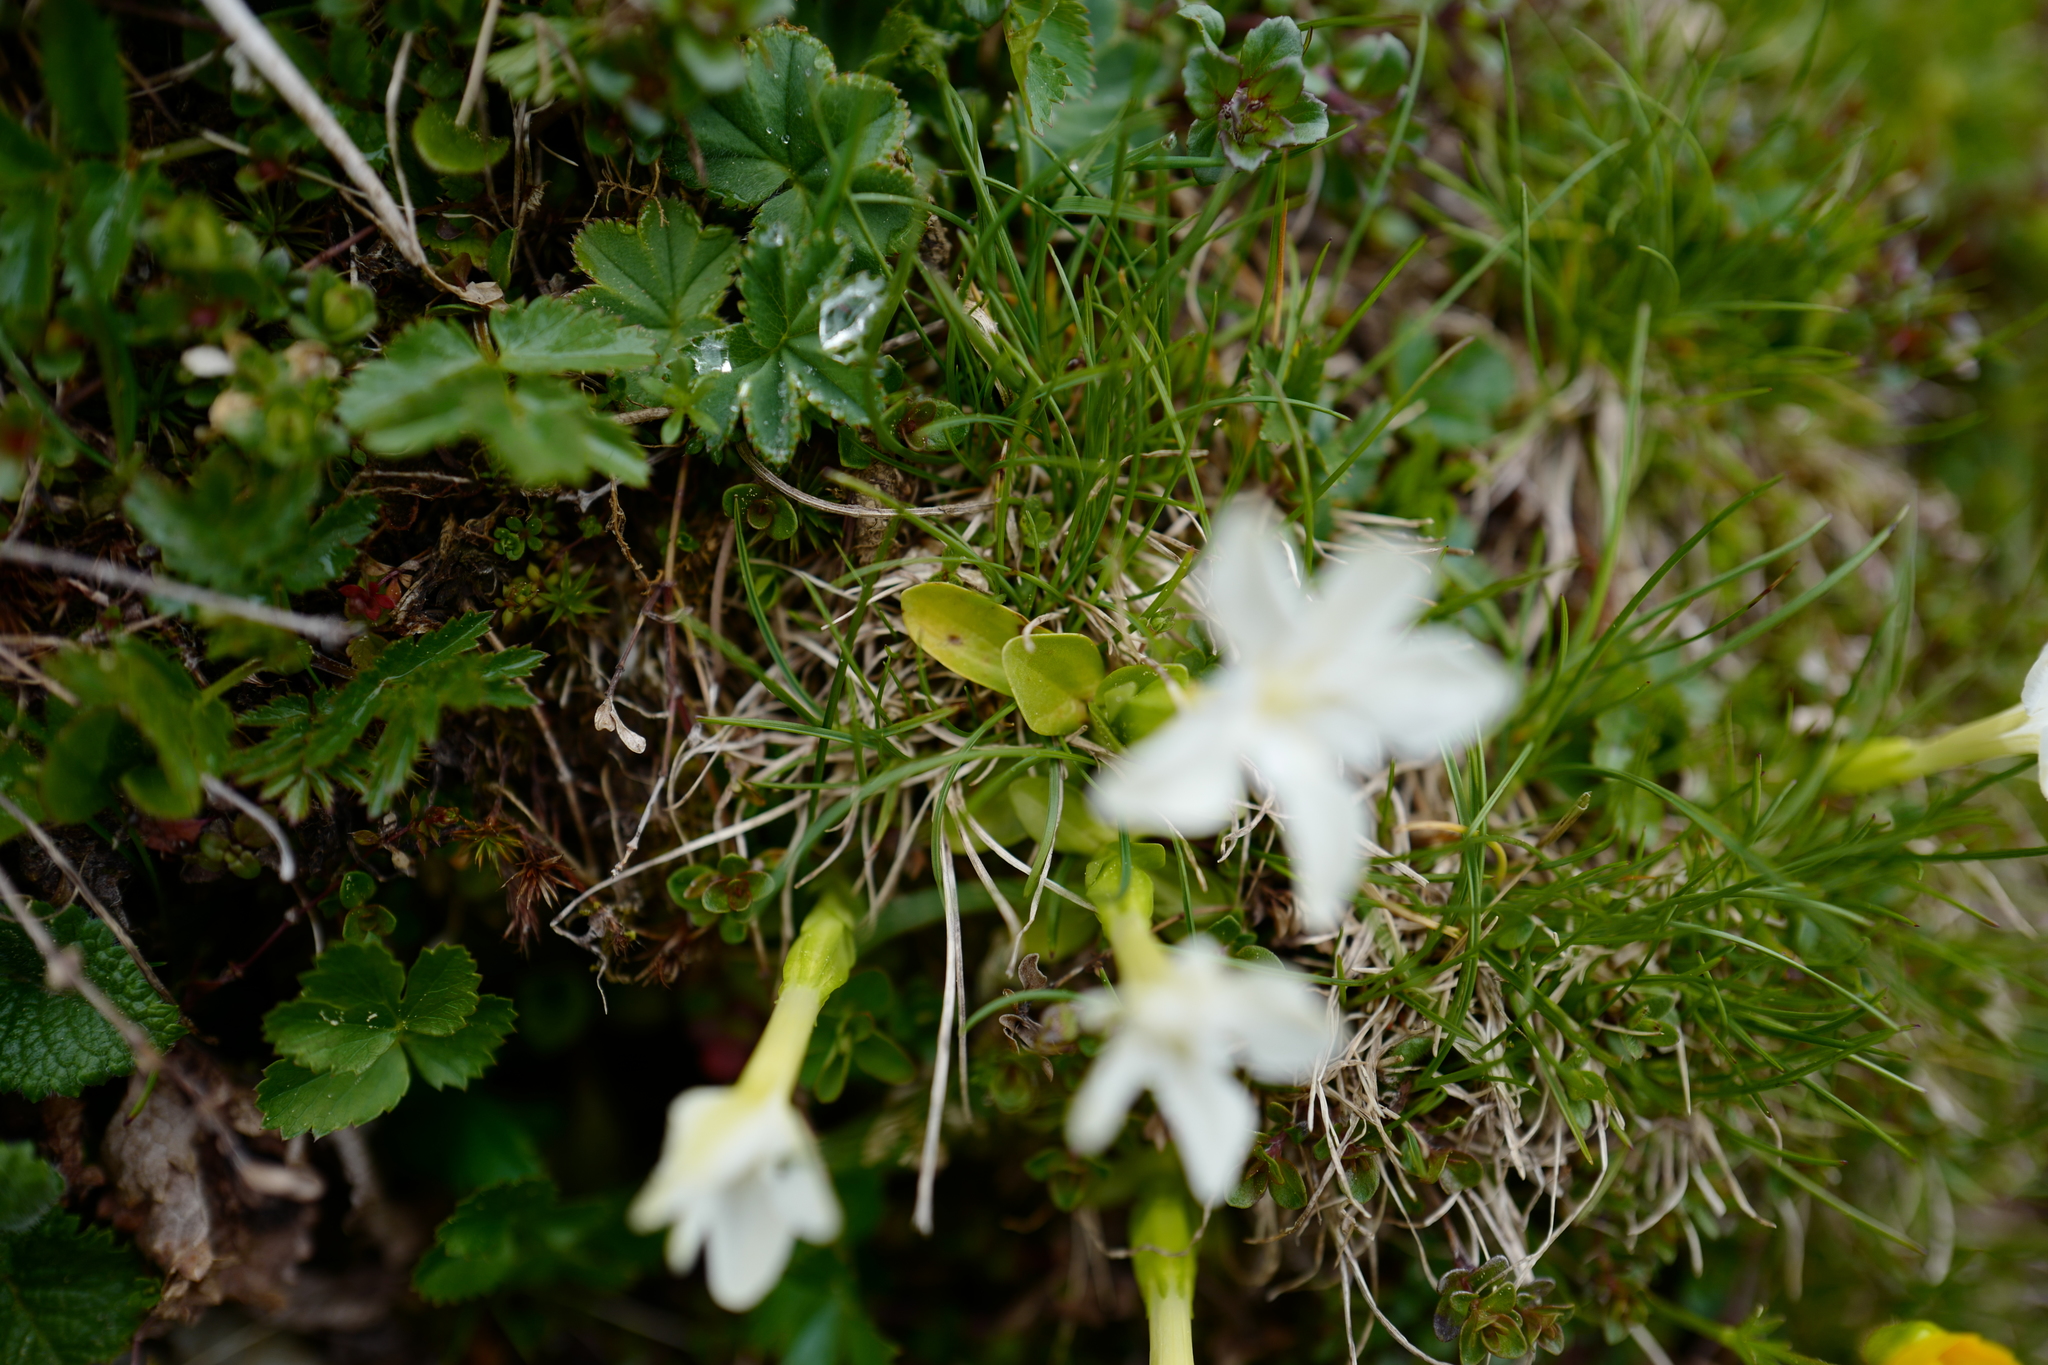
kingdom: Plantae
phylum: Tracheophyta
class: Magnoliopsida
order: Gentianales
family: Gentianaceae
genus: Gentiana
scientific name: Gentiana verna
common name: Spring gentian
